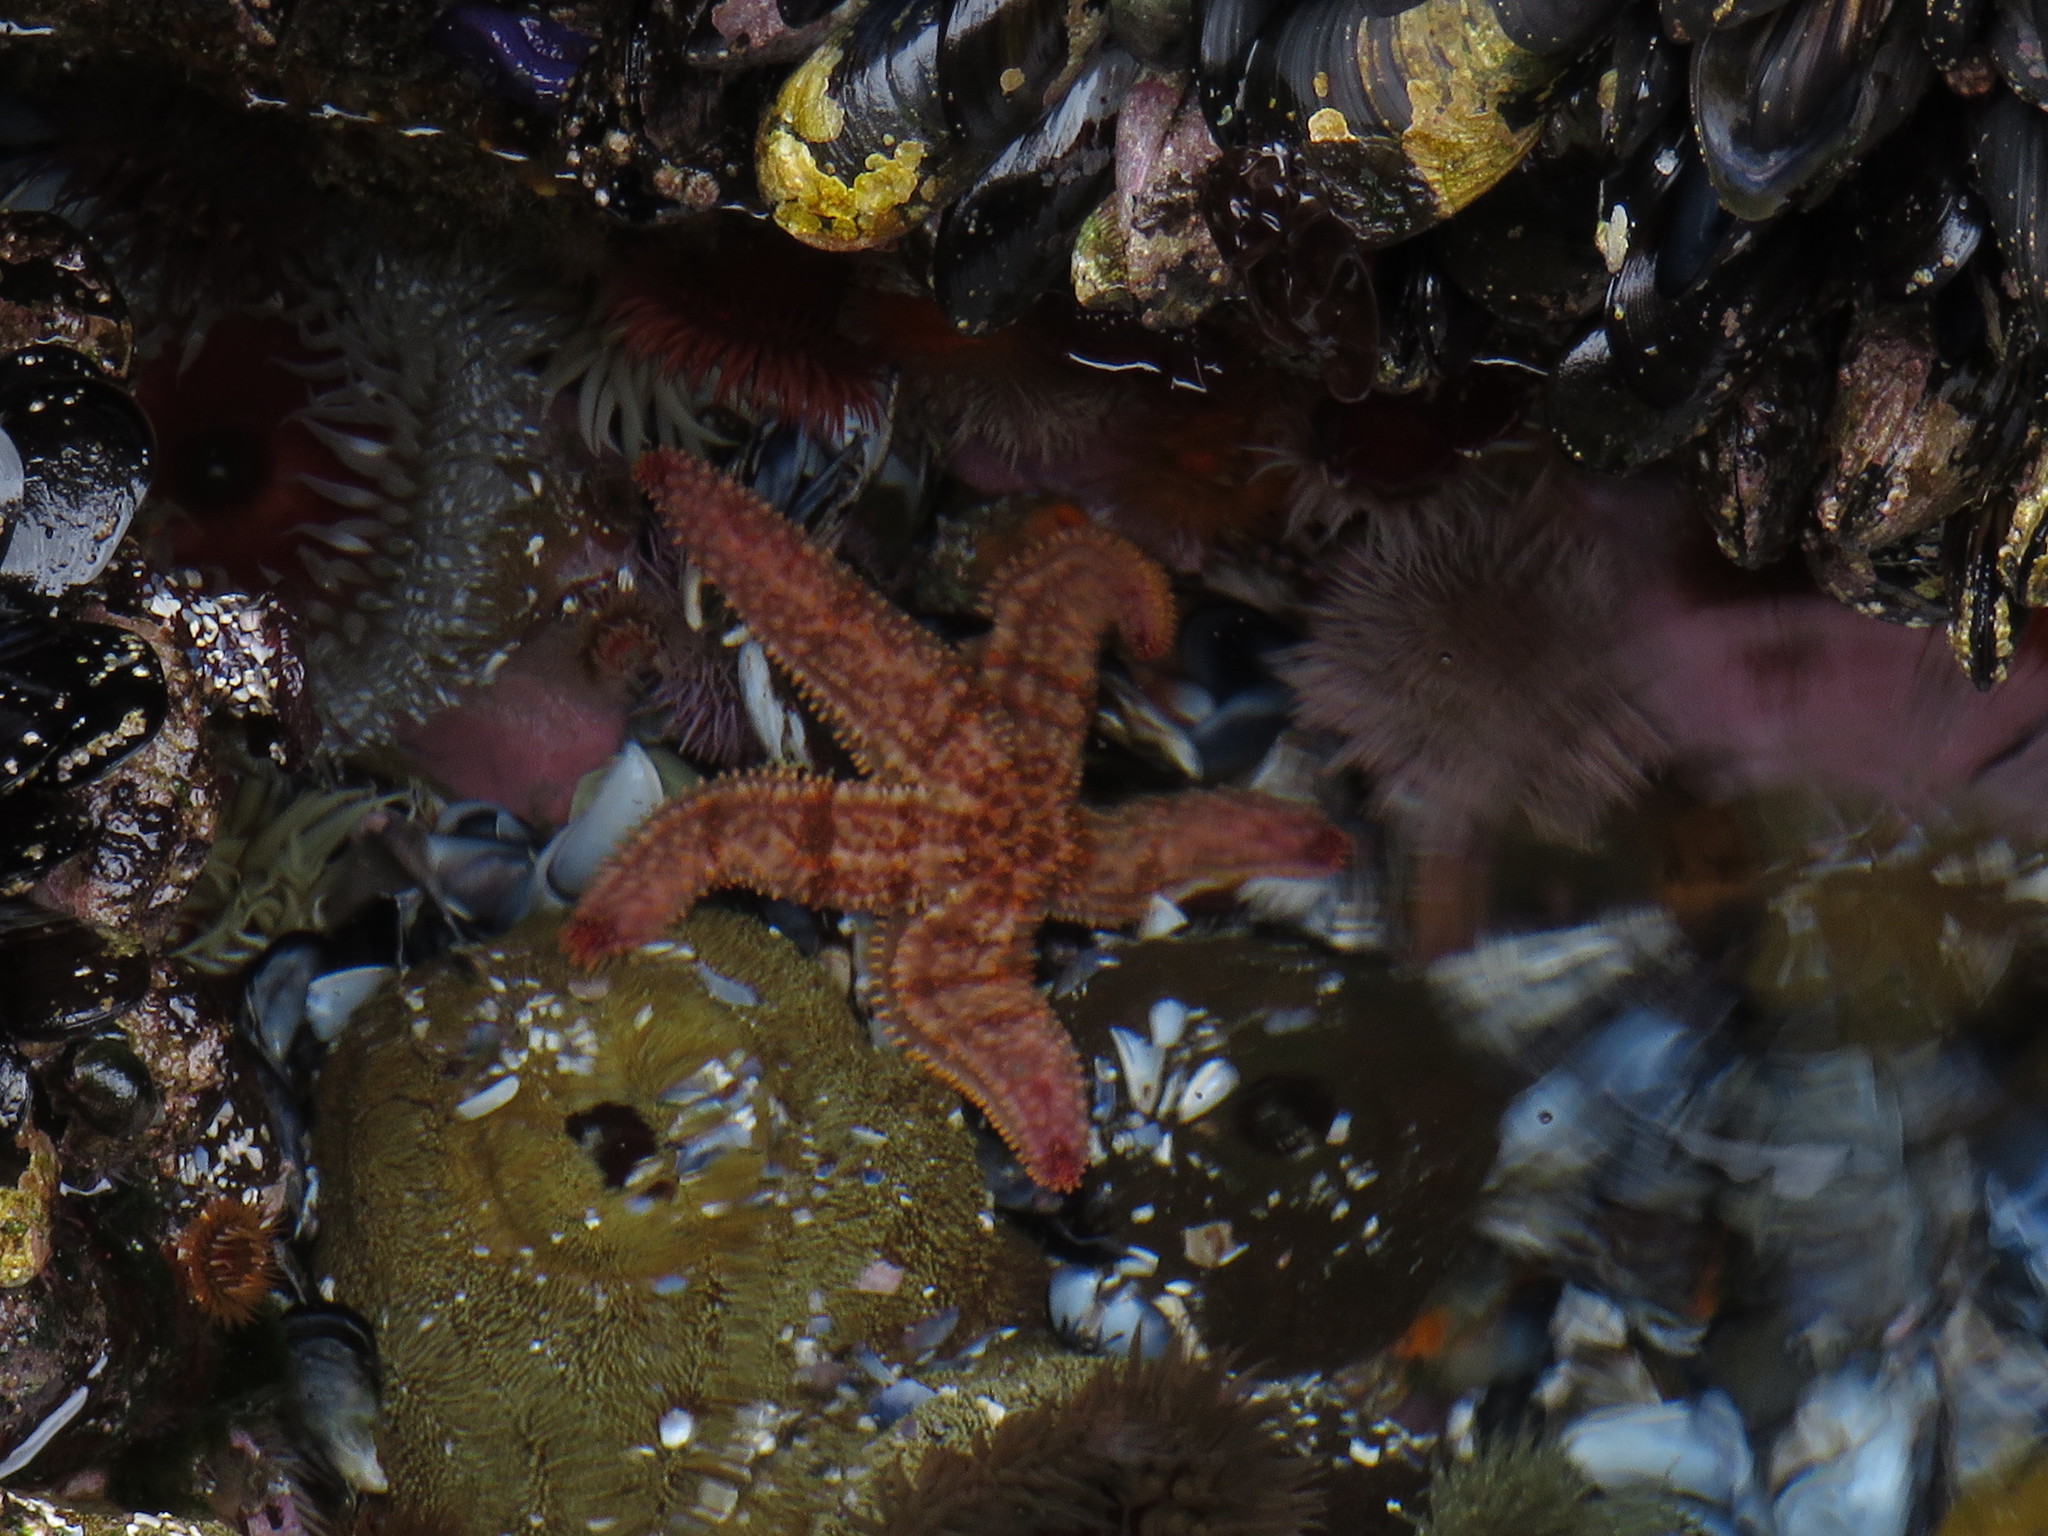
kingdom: Animalia
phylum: Echinodermata
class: Asteroidea
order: Forcipulatida
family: Asteriidae
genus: Marthasterias
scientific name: Marthasterias africana
